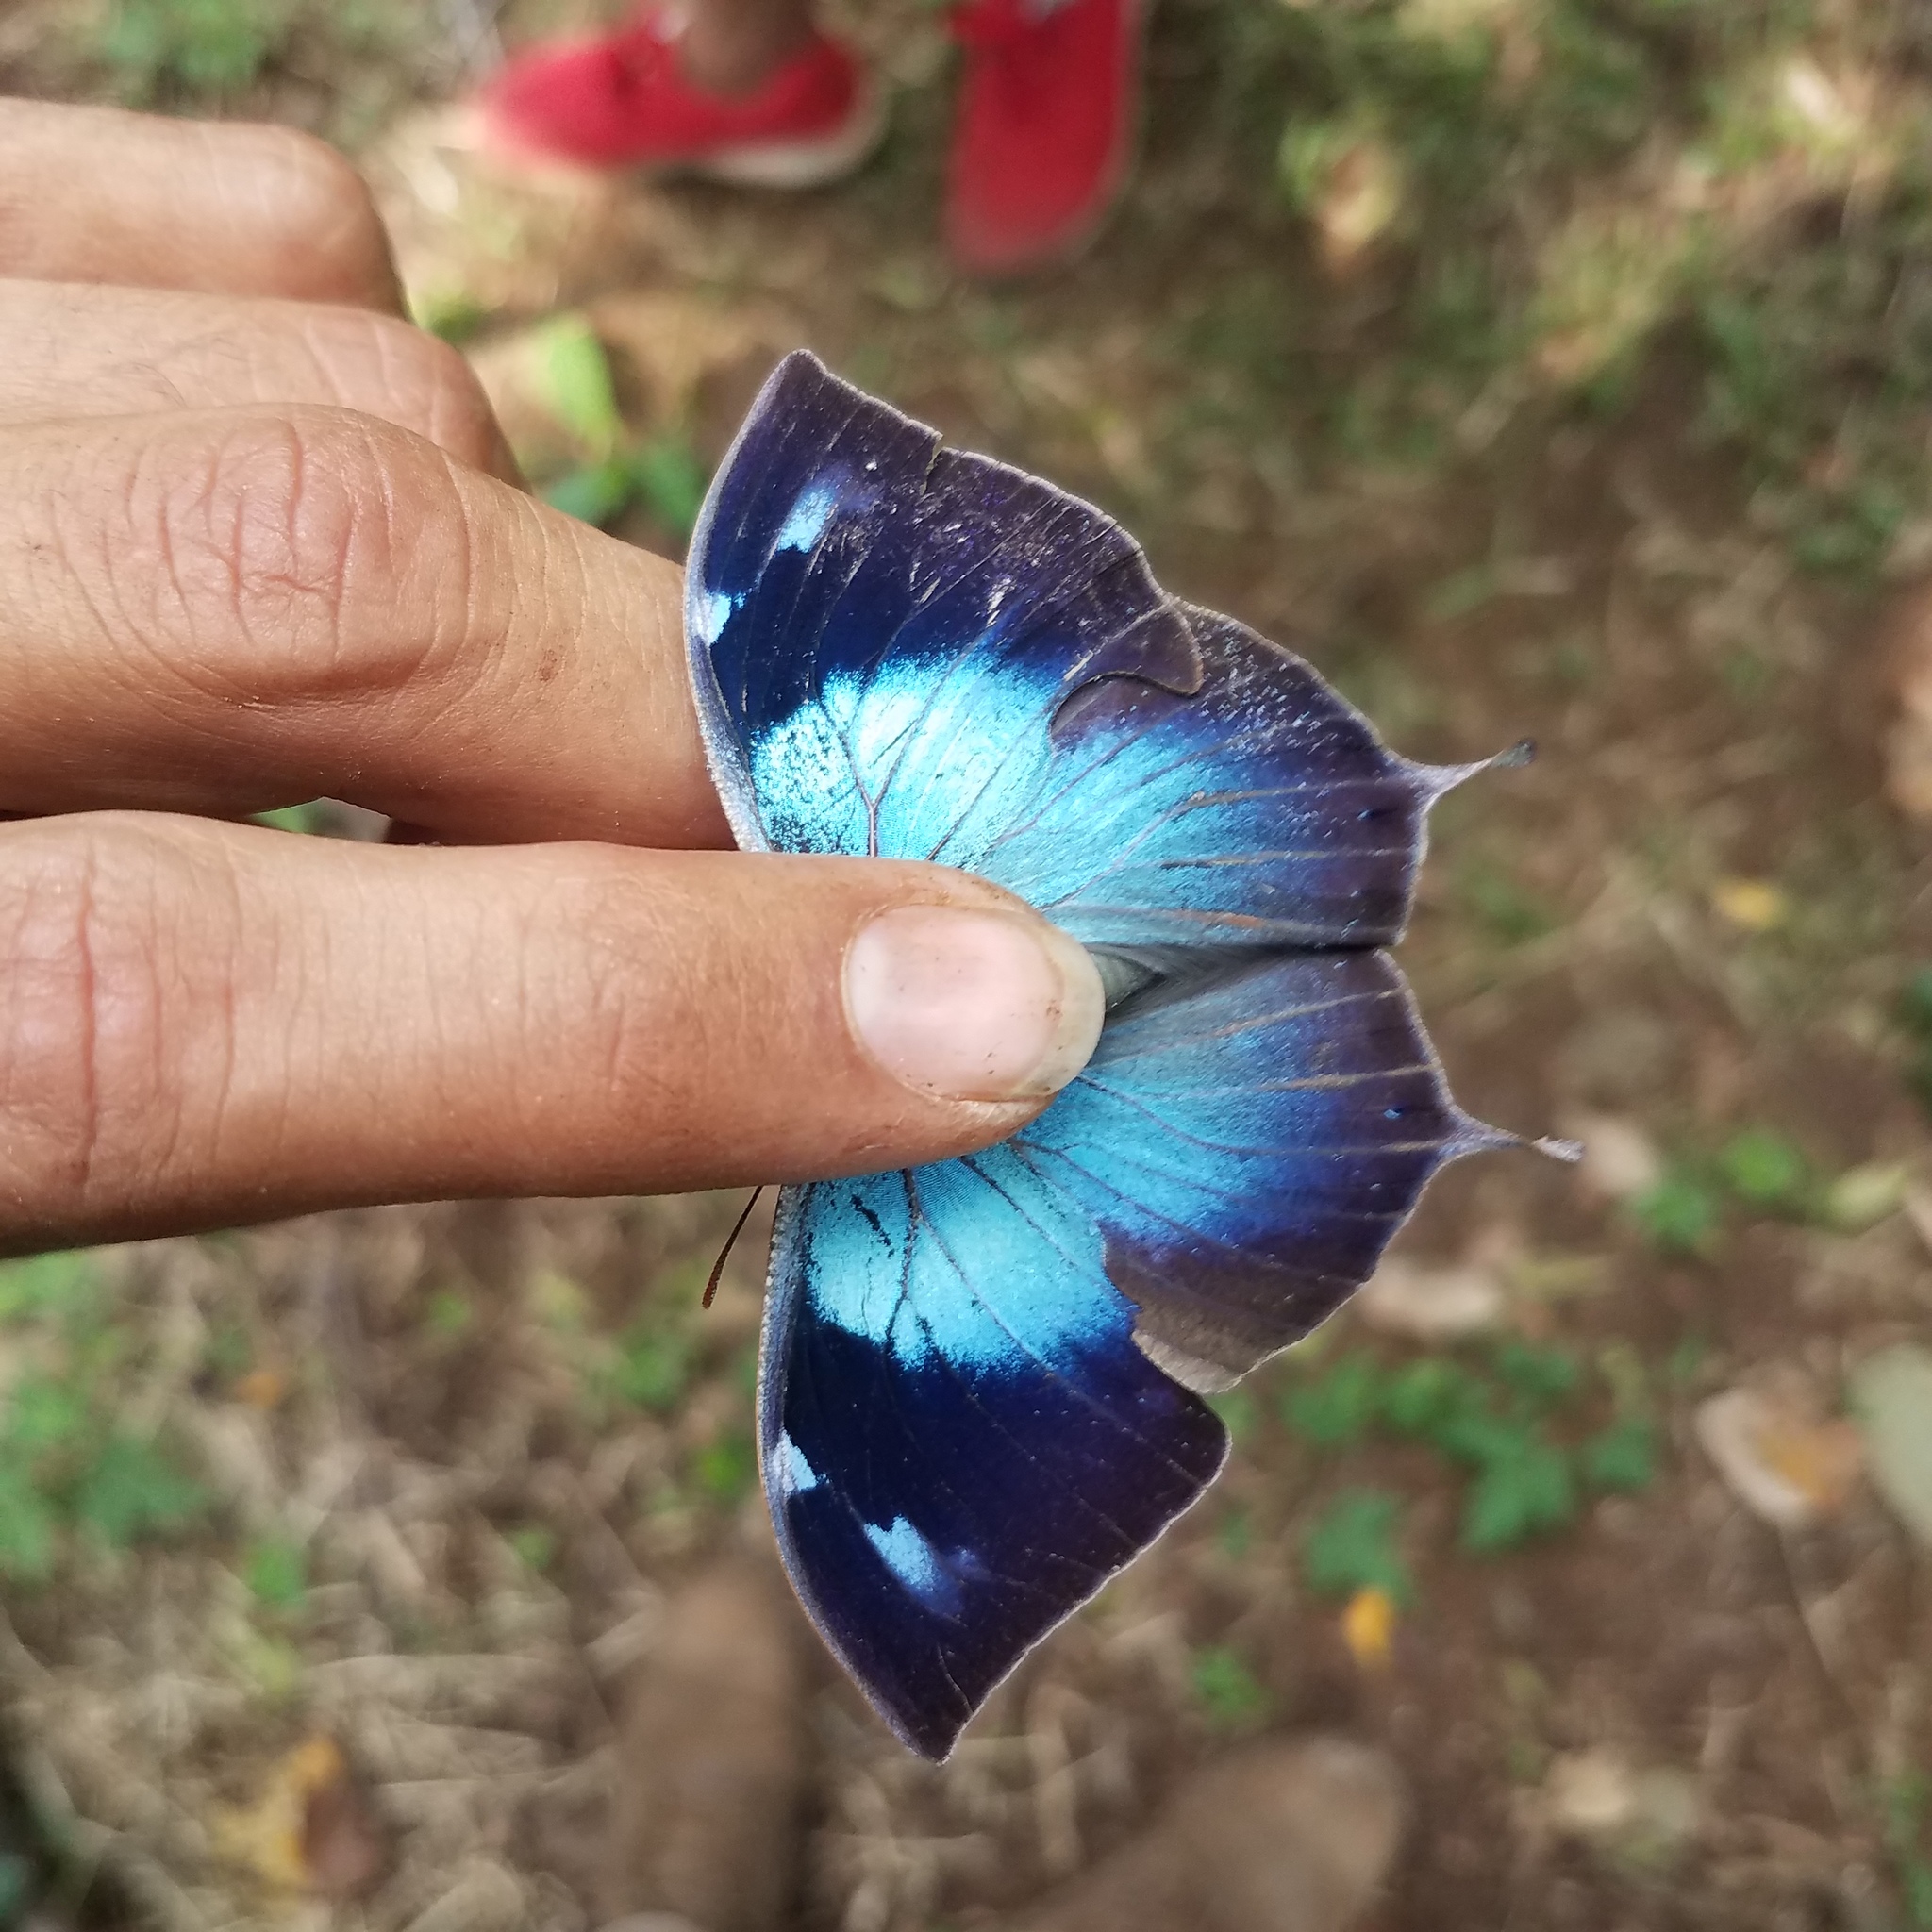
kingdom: Animalia
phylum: Arthropoda
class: Insecta
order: Lepidoptera
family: Nymphalidae
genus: Memphis
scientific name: Memphis moruus
